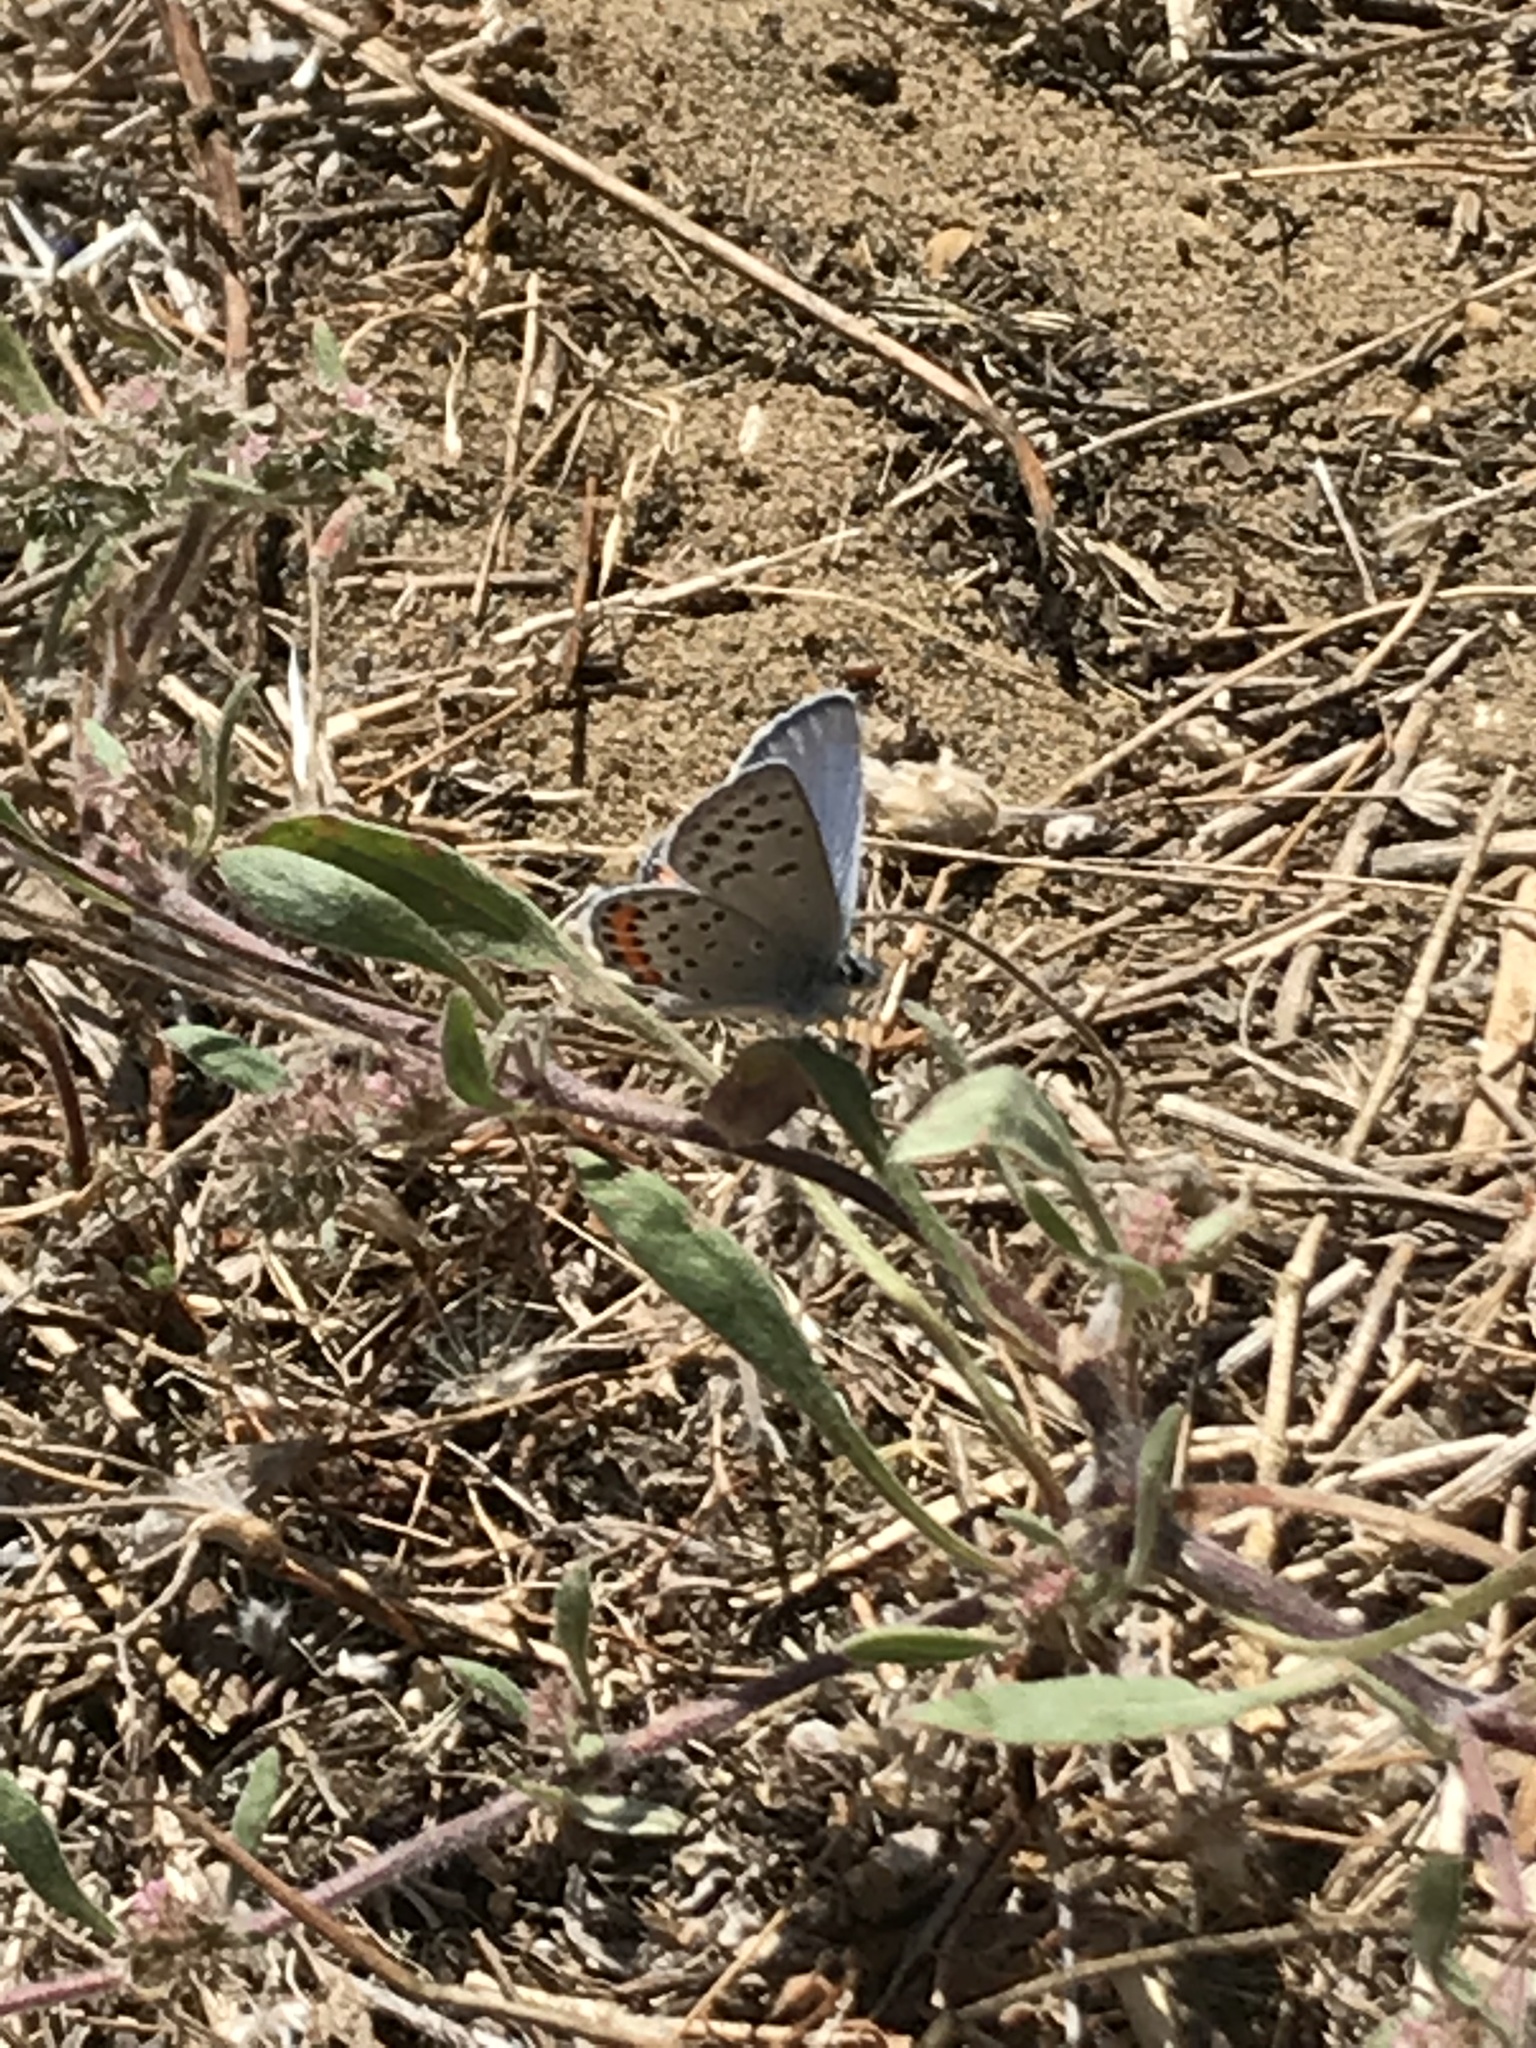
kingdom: Animalia
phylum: Arthropoda
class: Insecta
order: Lepidoptera
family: Lycaenidae
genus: Icaricia
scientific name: Icaricia acmon
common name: Acmon blue
